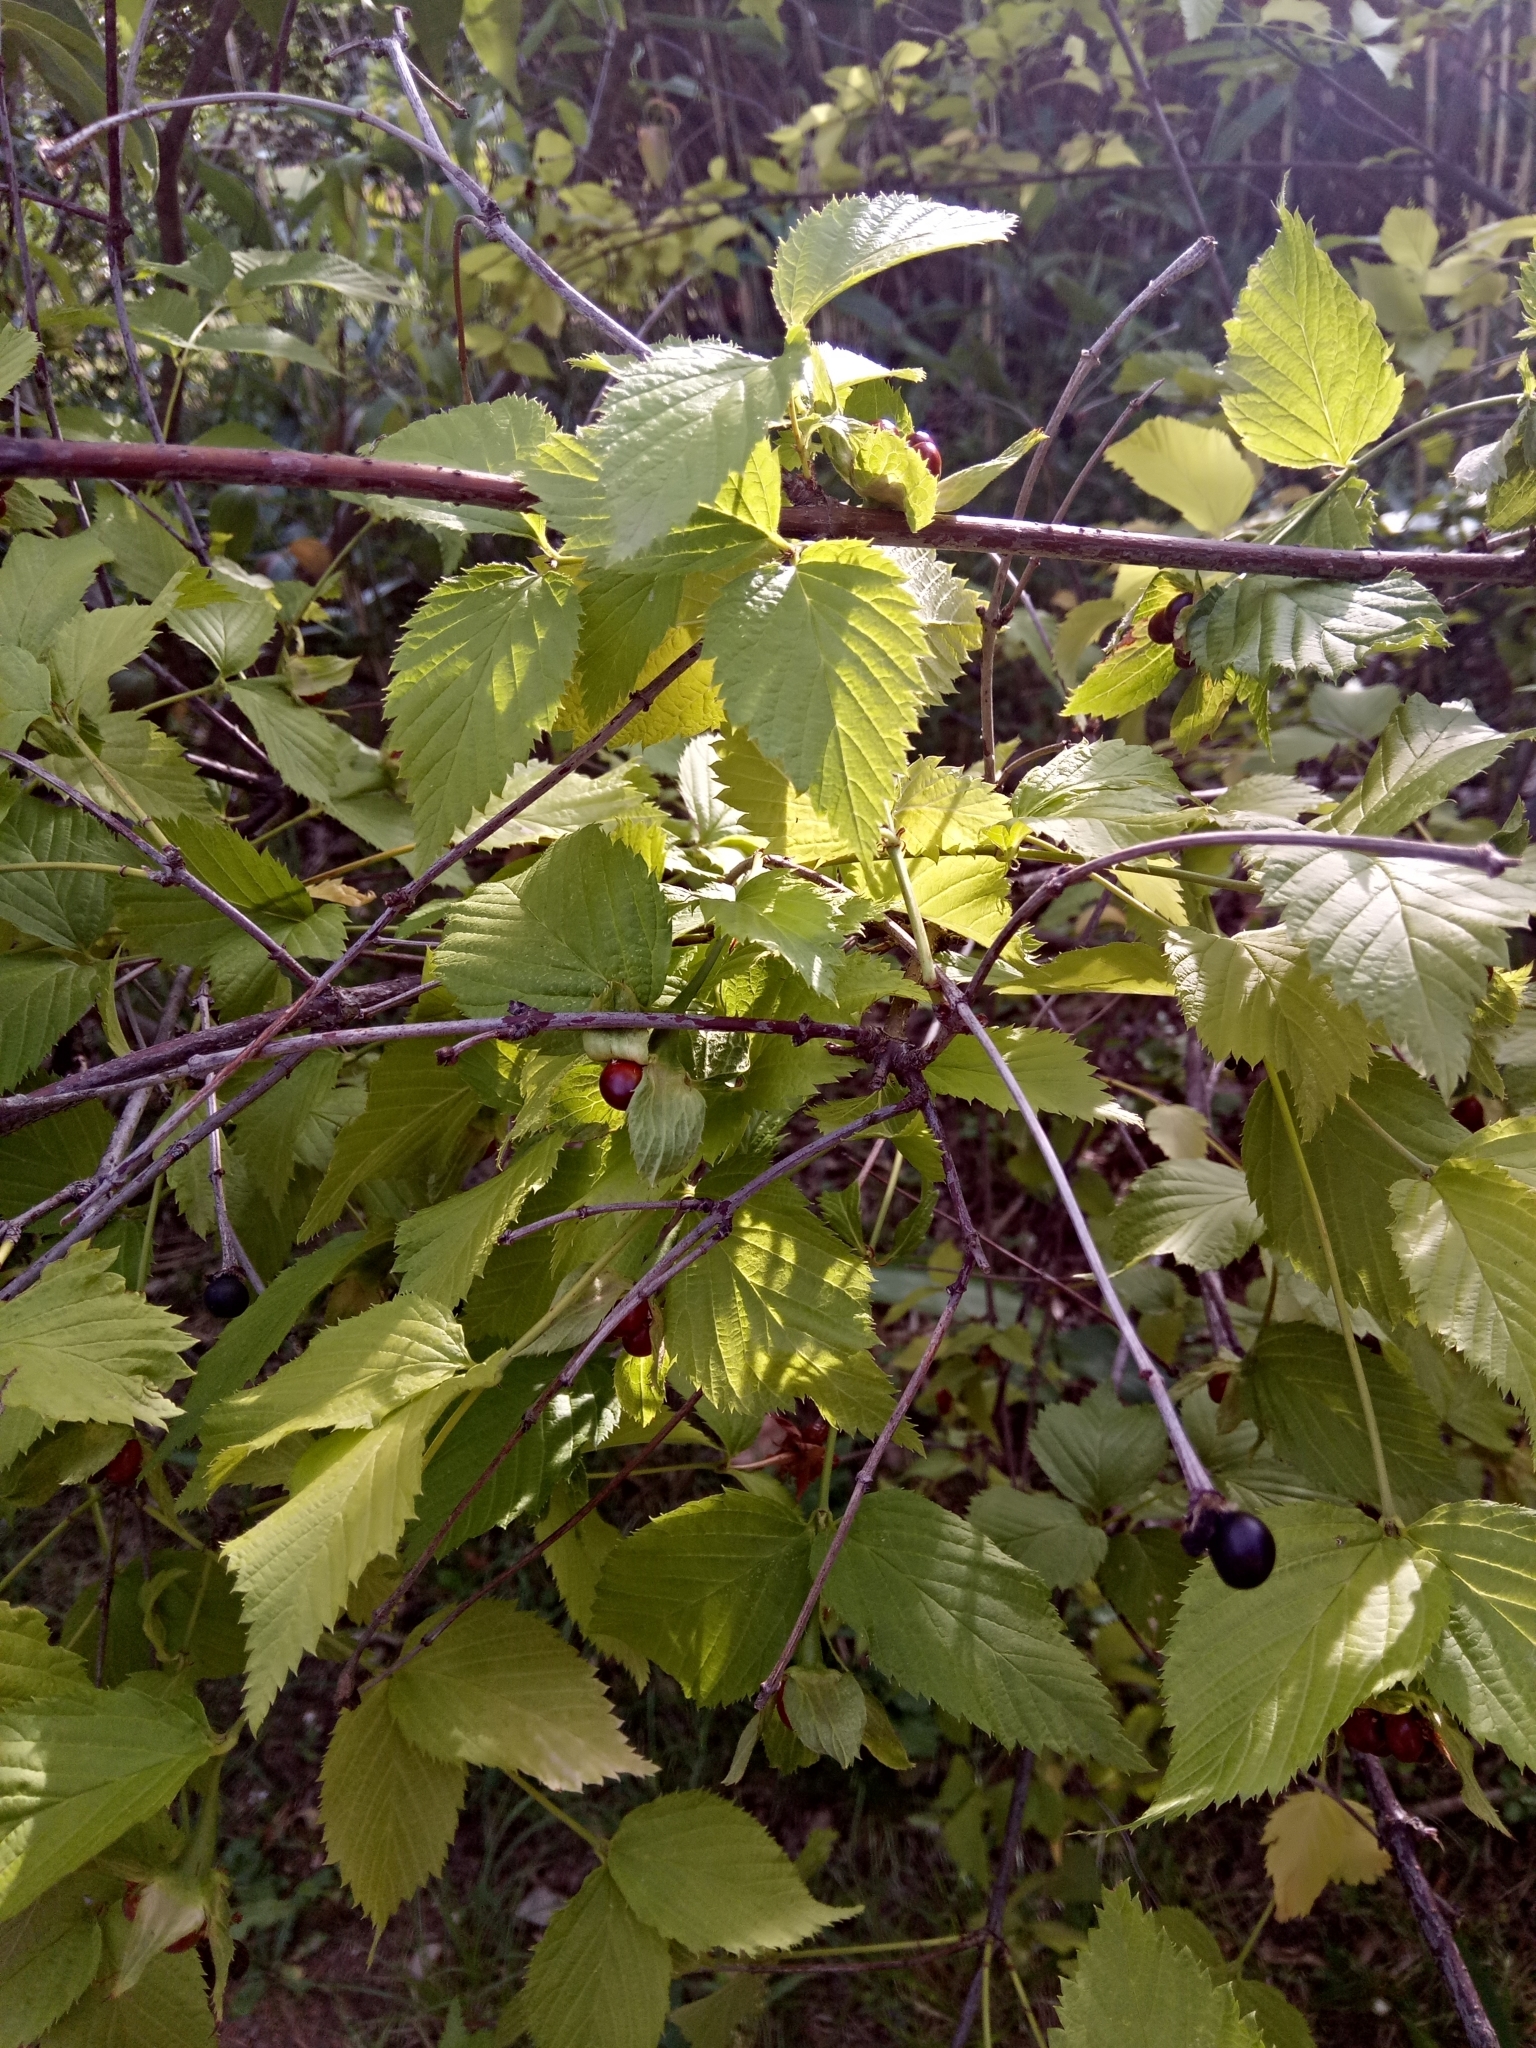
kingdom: Plantae
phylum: Tracheophyta
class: Magnoliopsida
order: Rosales
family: Rosaceae
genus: Rhodotypos
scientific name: Rhodotypos scandens
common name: Jetbead
